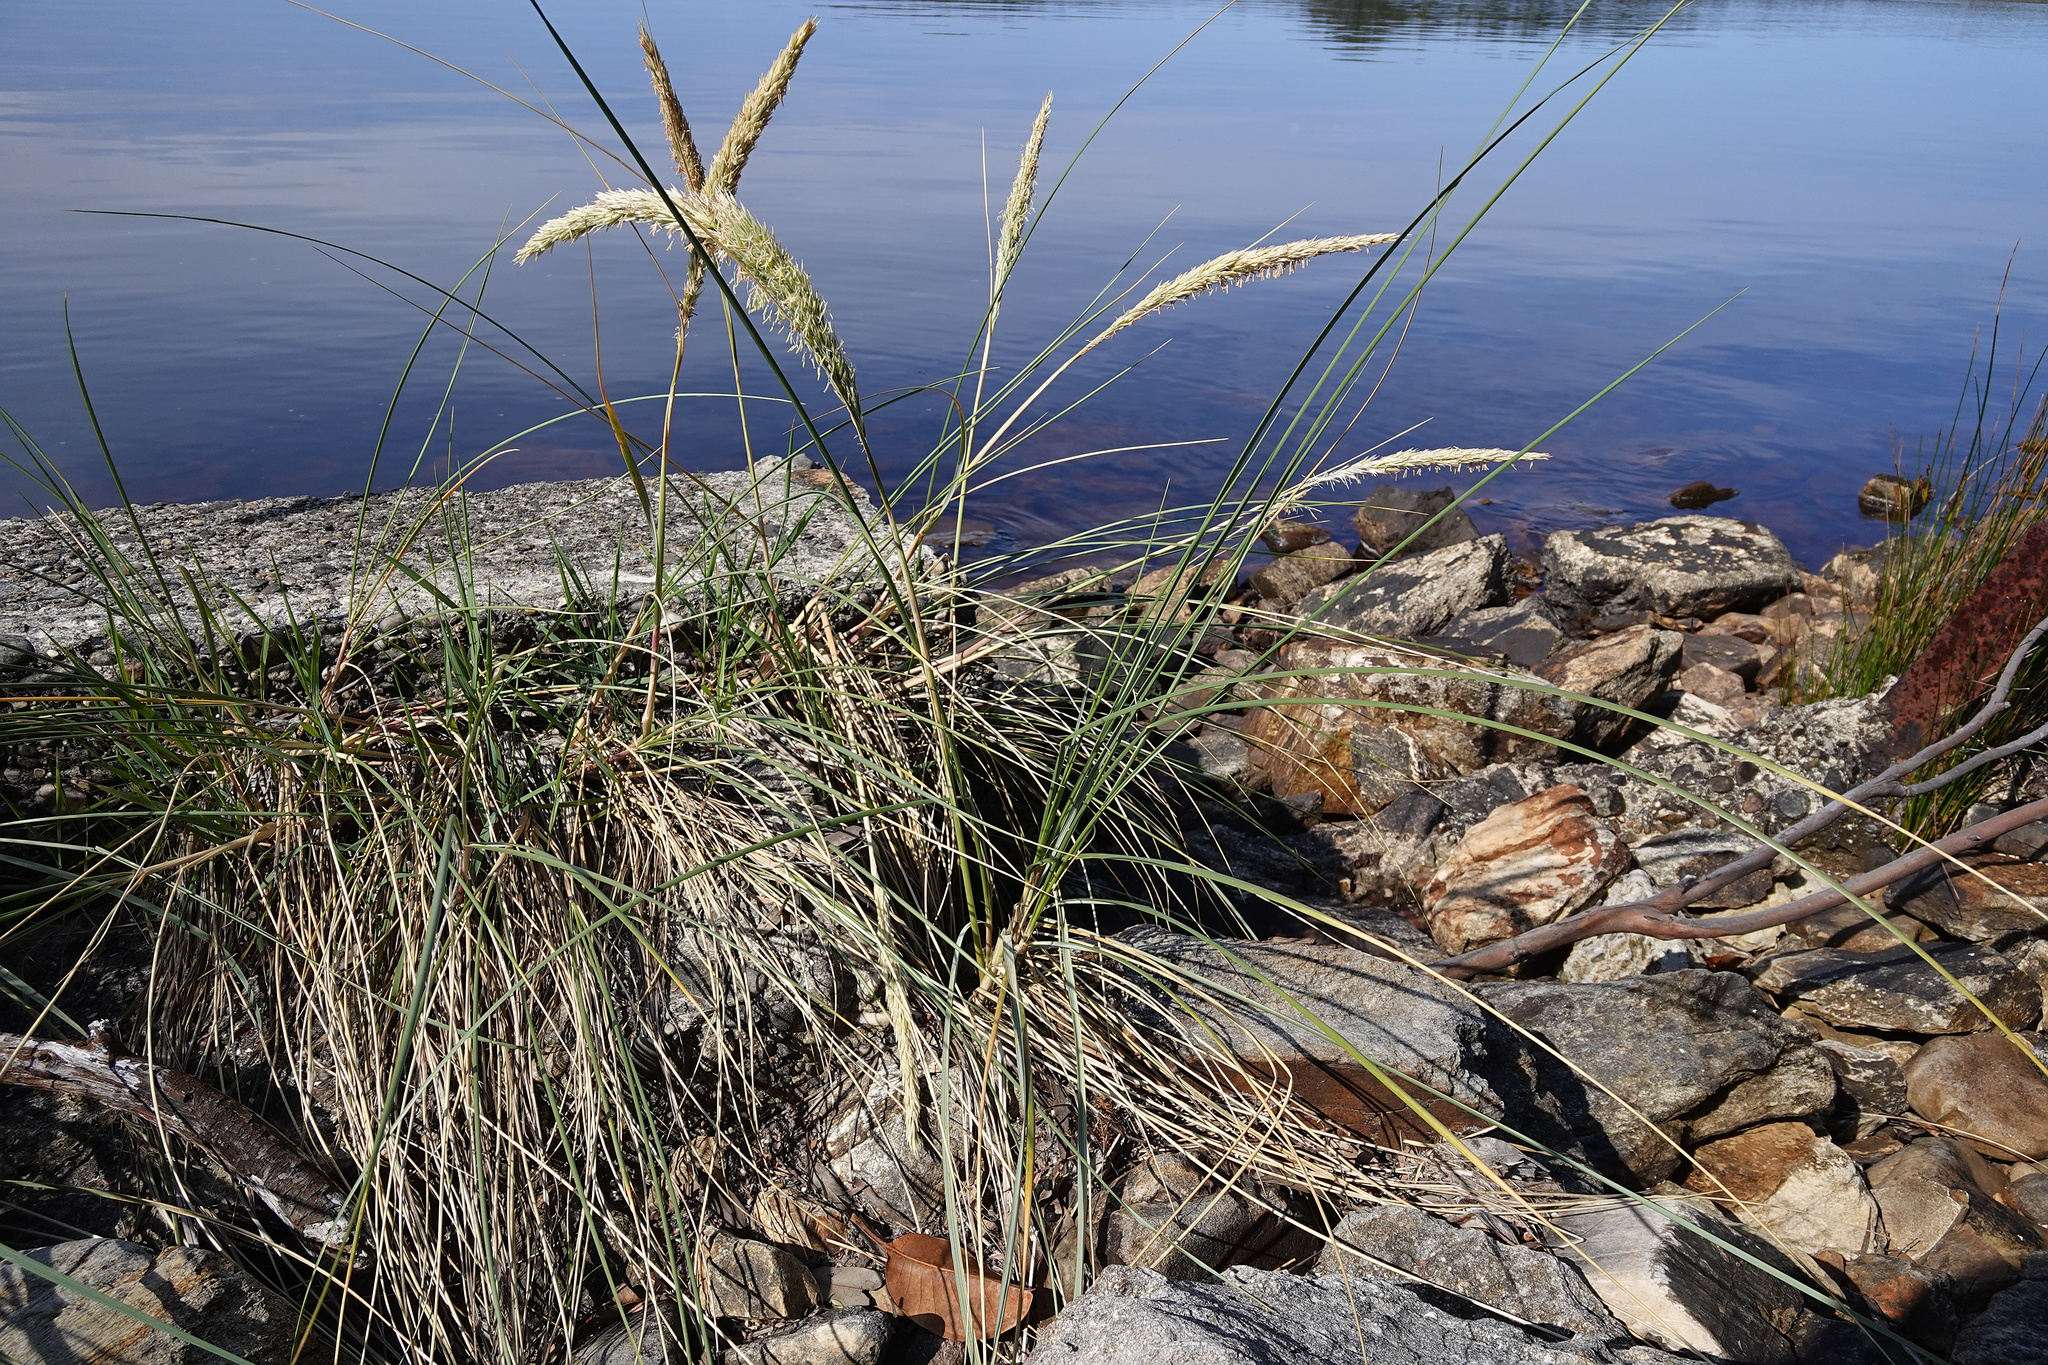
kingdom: Plantae
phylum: Tracheophyta
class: Liliopsida
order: Poales
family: Poaceae
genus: Calamagrostis
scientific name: Calamagrostis arenaria
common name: European beachgrass
